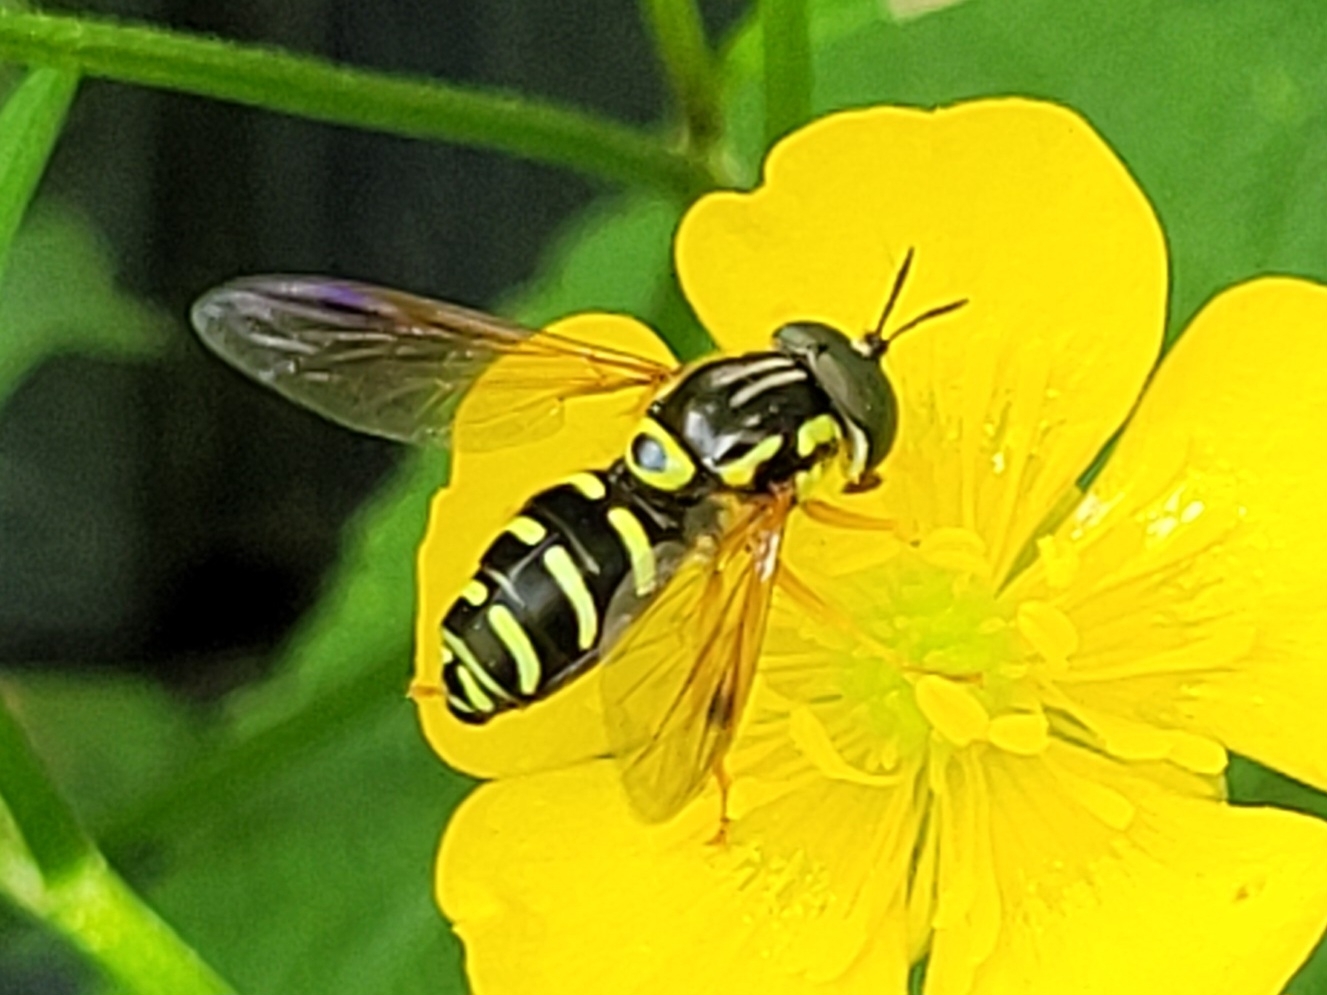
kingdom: Animalia
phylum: Arthropoda
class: Insecta
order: Diptera
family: Syrphidae
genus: Chrysotoxum
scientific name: Chrysotoxum festivum
